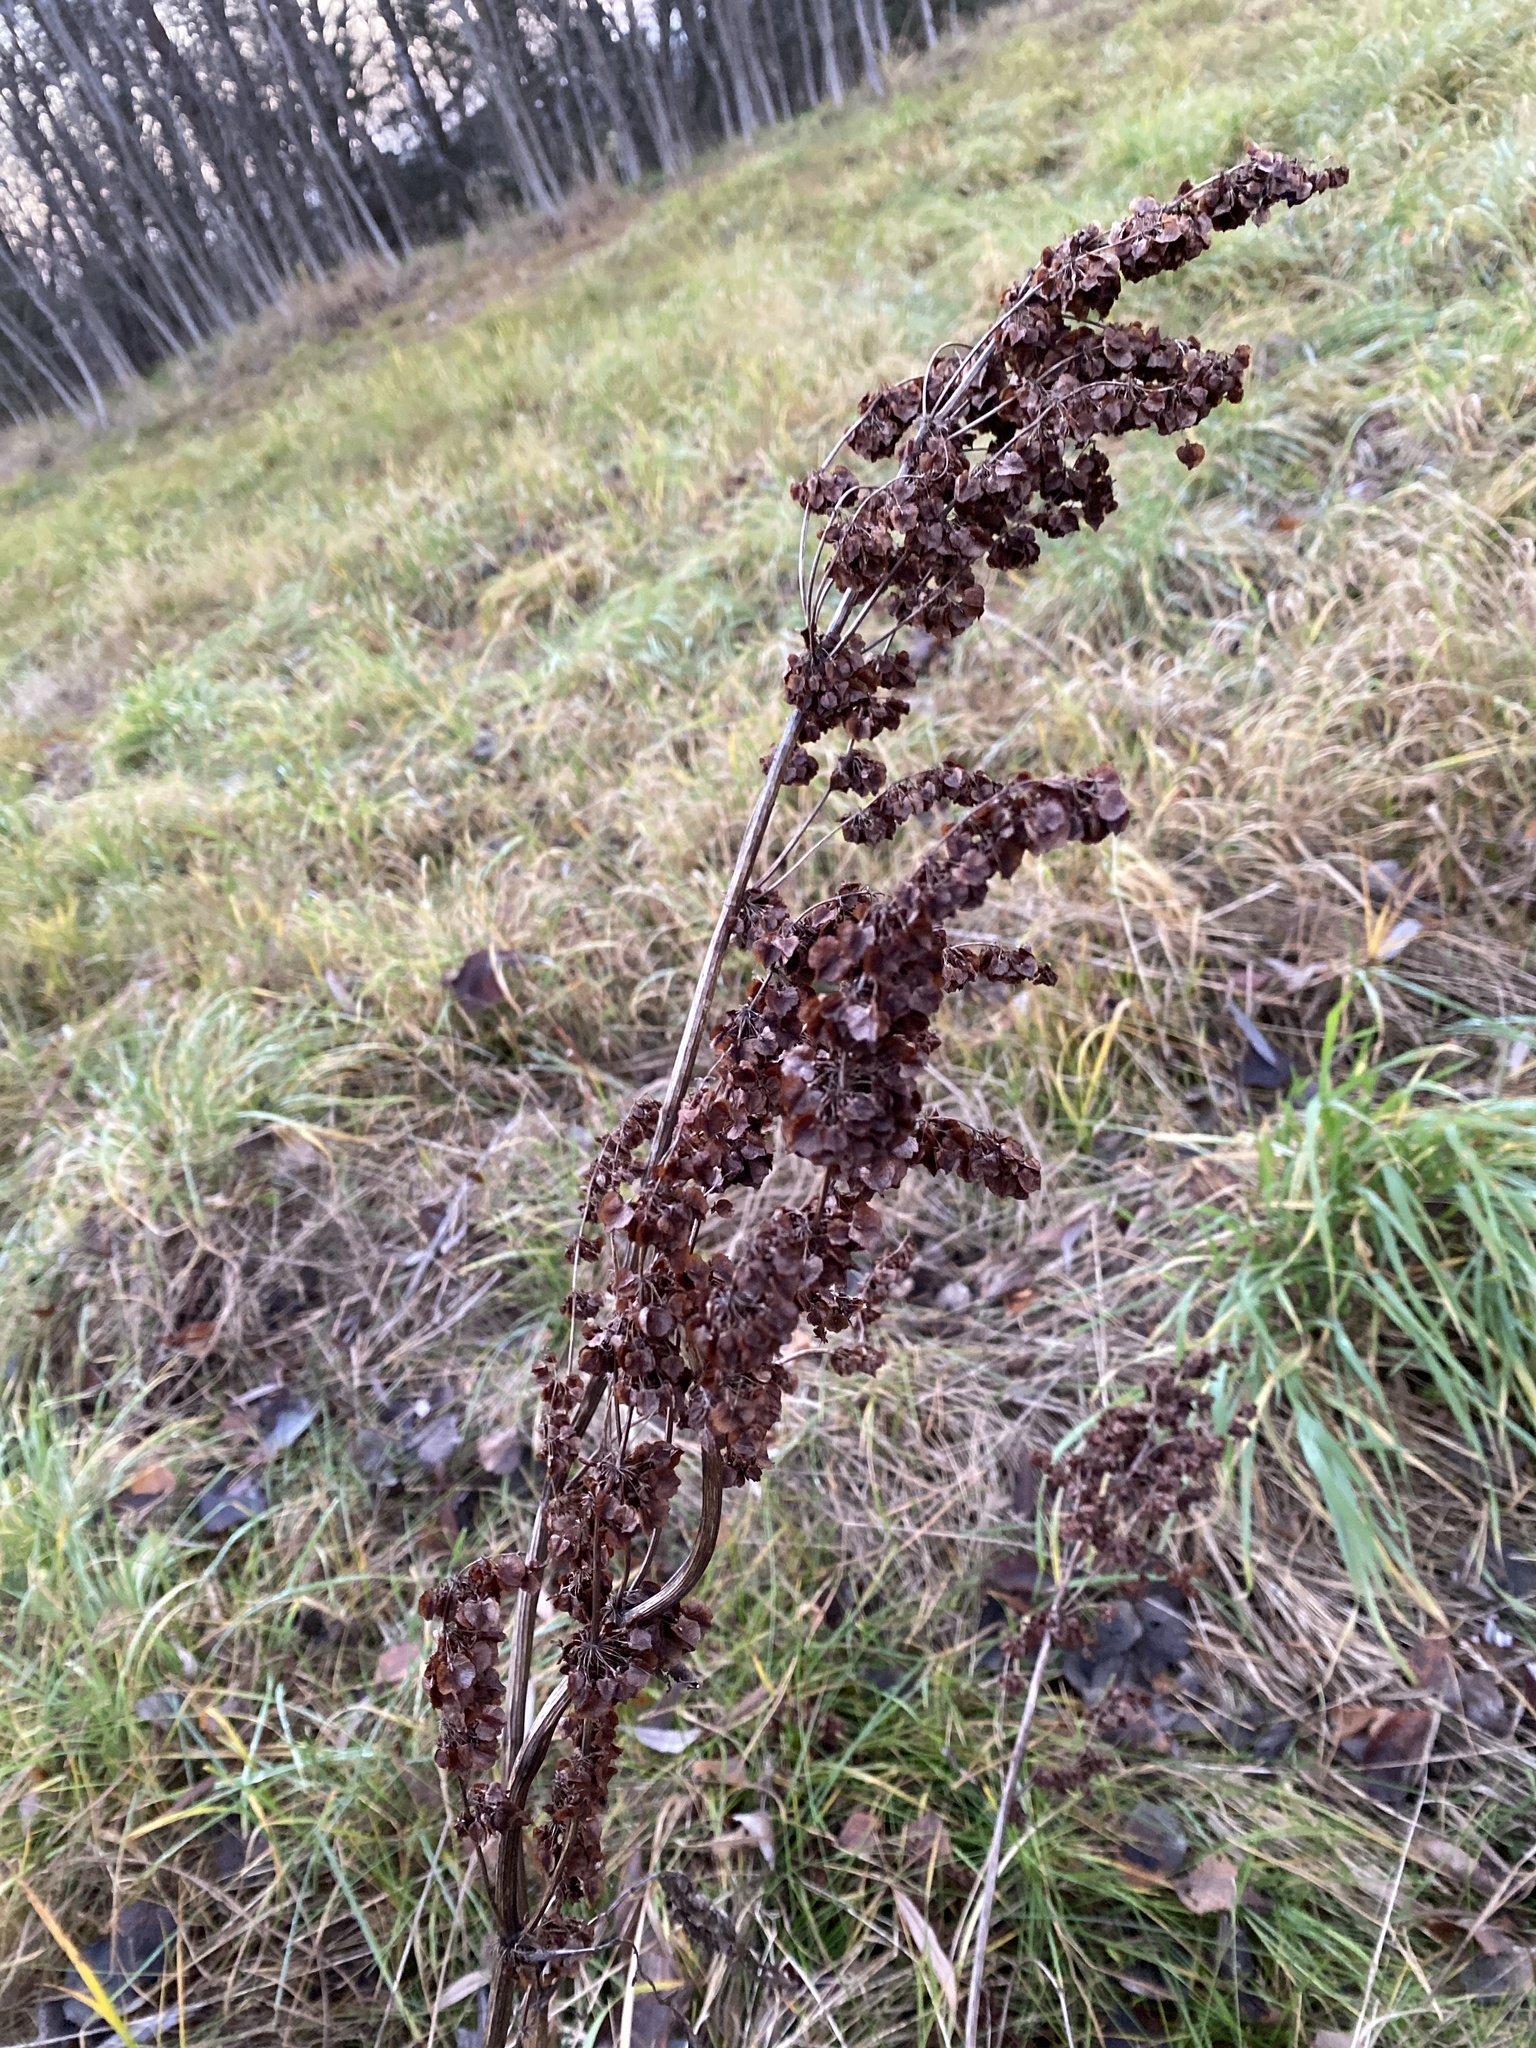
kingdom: Plantae
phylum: Tracheophyta
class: Magnoliopsida
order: Caryophyllales
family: Polygonaceae
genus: Rumex
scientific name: Rumex confertus
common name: Russian dock
